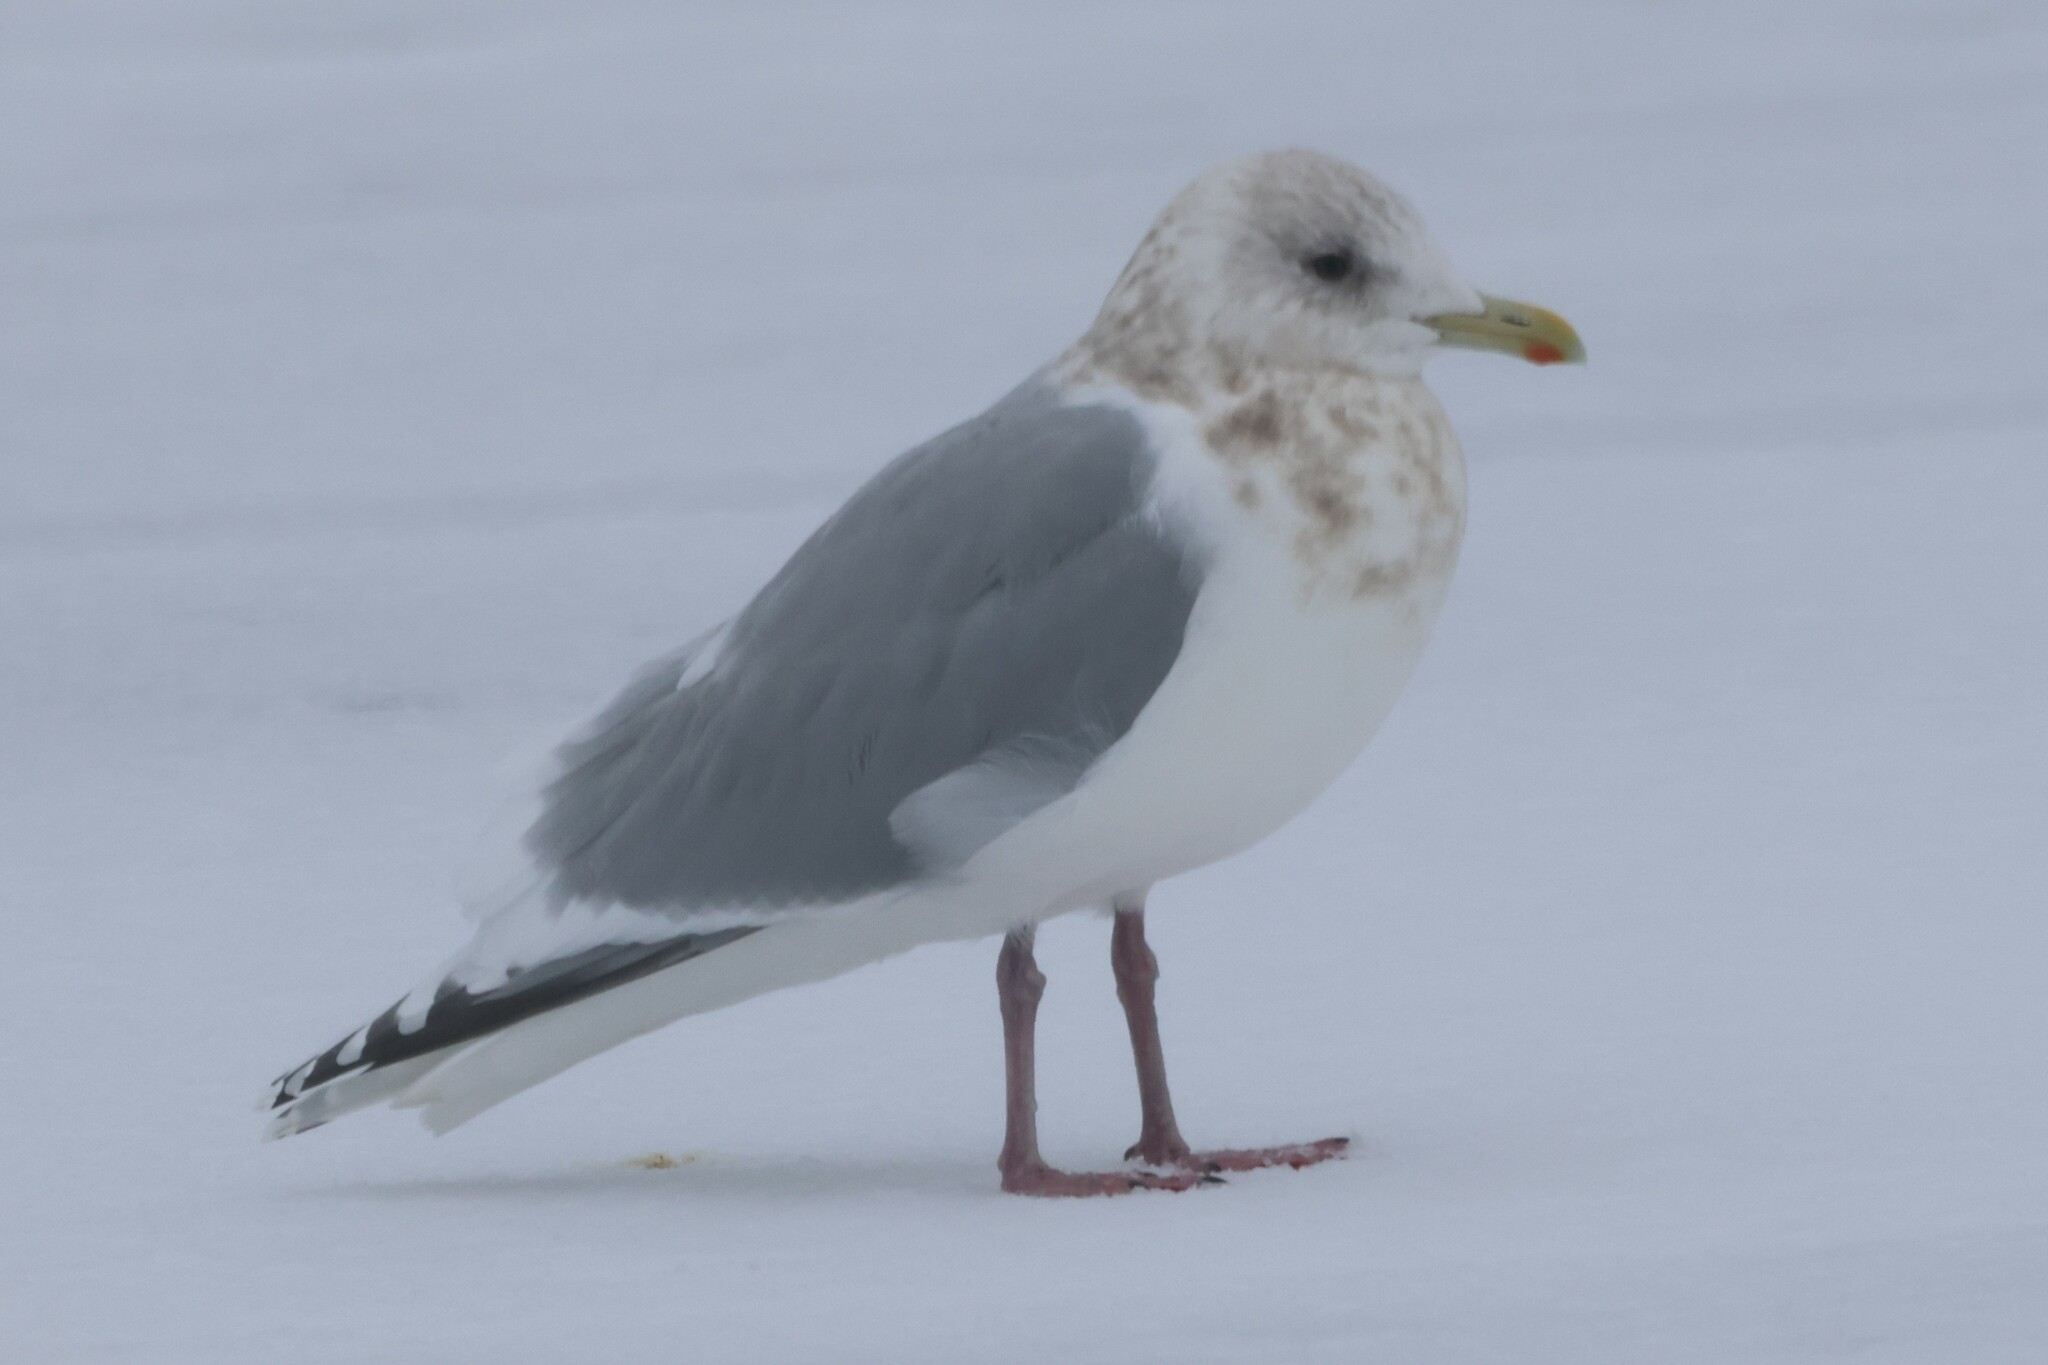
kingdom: Animalia
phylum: Chordata
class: Aves
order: Charadriiformes
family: Laridae
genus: Larus
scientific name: Larus glaucoides
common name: Iceland gull
